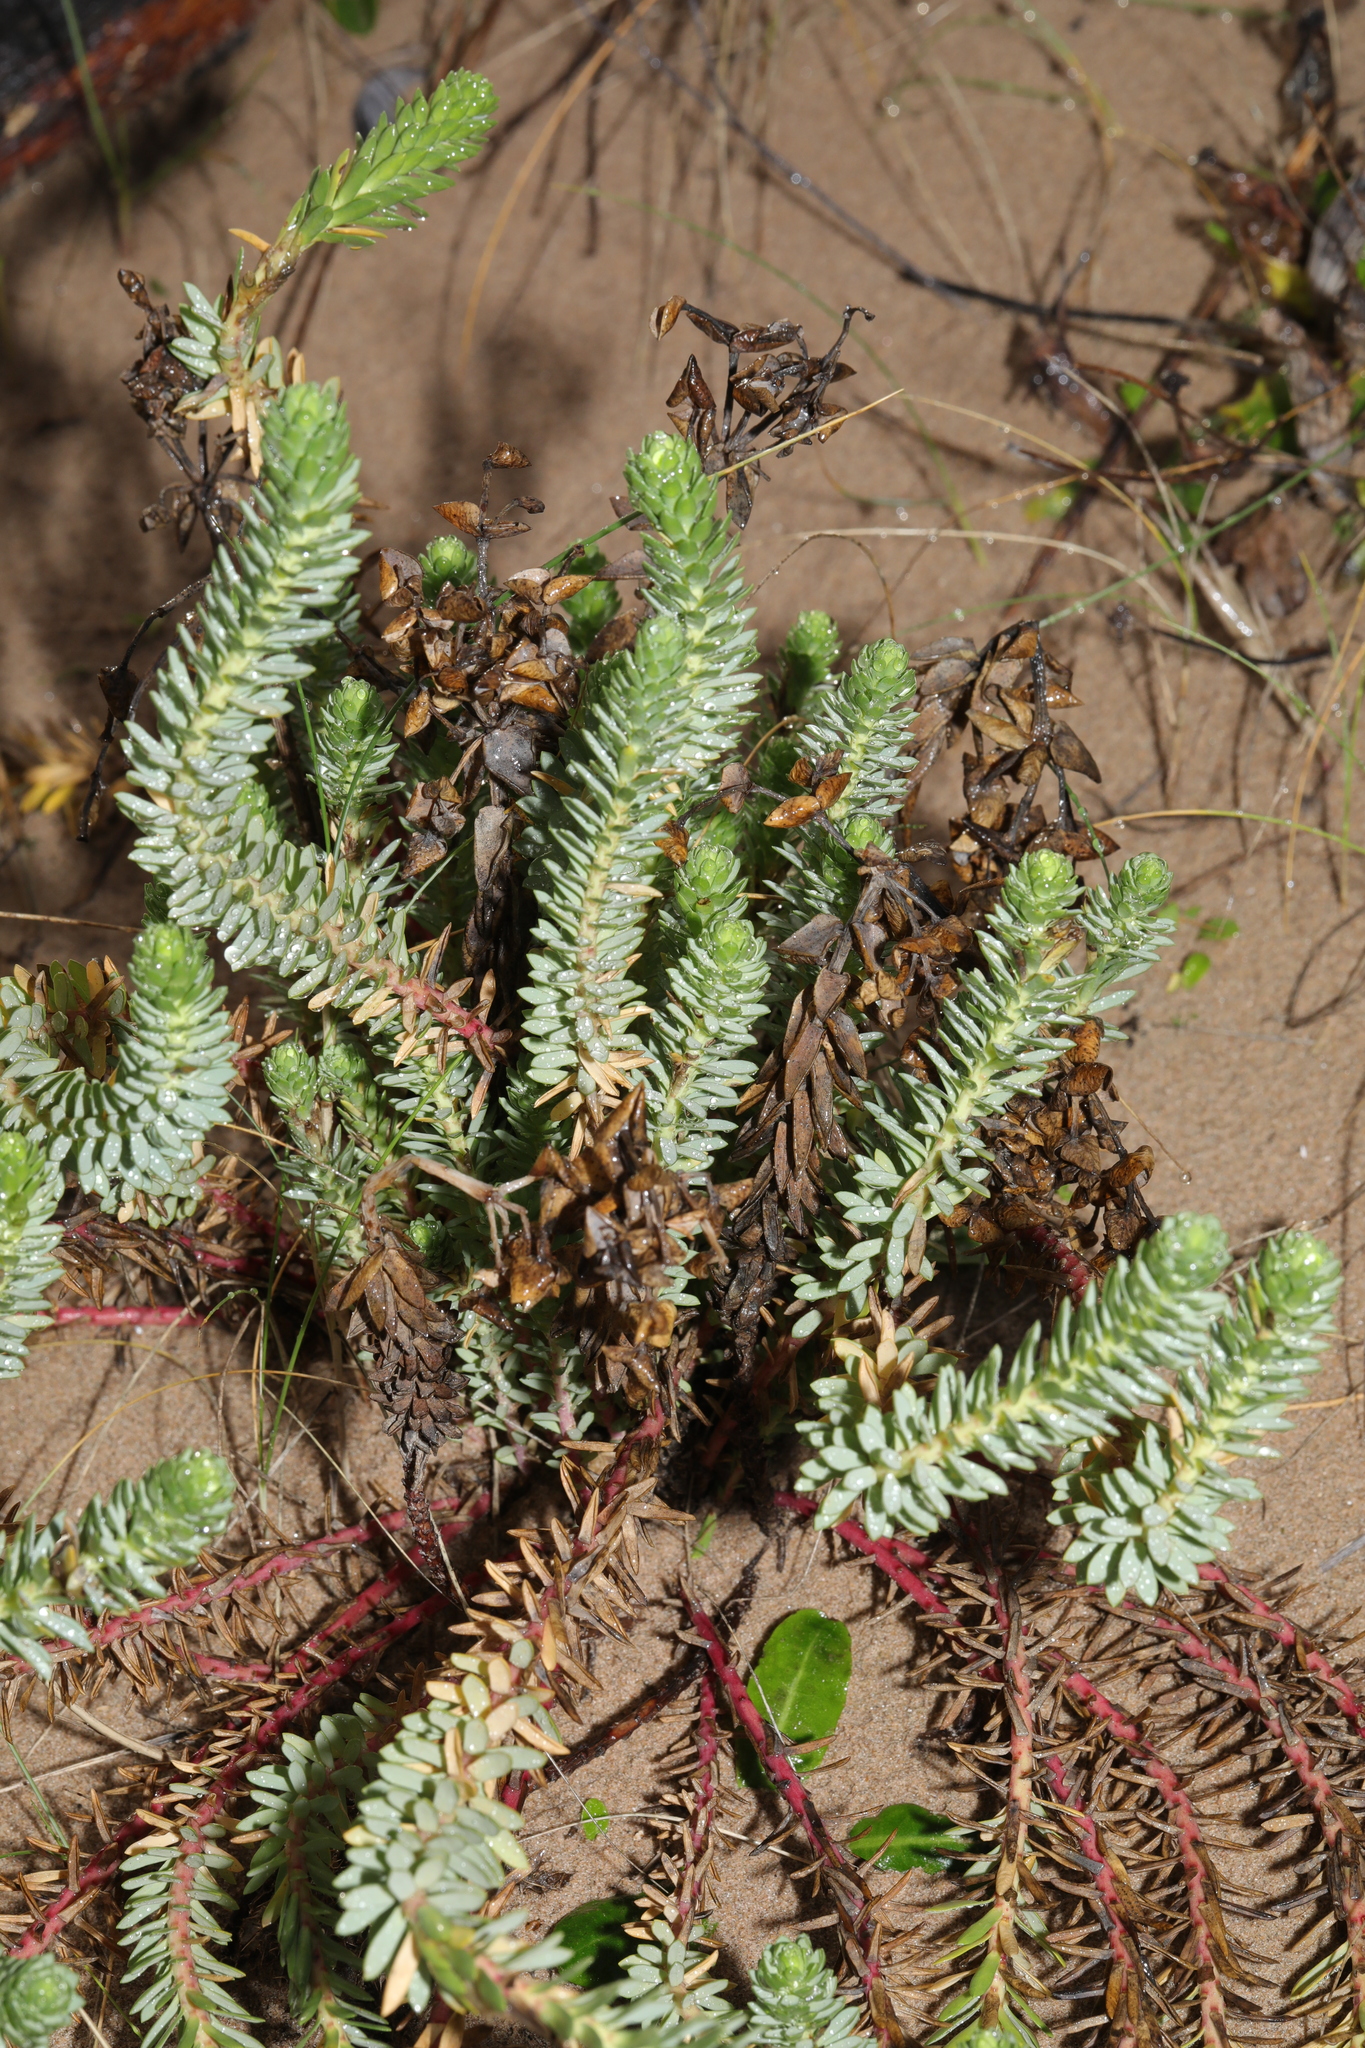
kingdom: Plantae
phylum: Tracheophyta
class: Magnoliopsida
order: Malpighiales
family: Euphorbiaceae
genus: Euphorbia
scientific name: Euphorbia paralias
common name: Sea spurge
